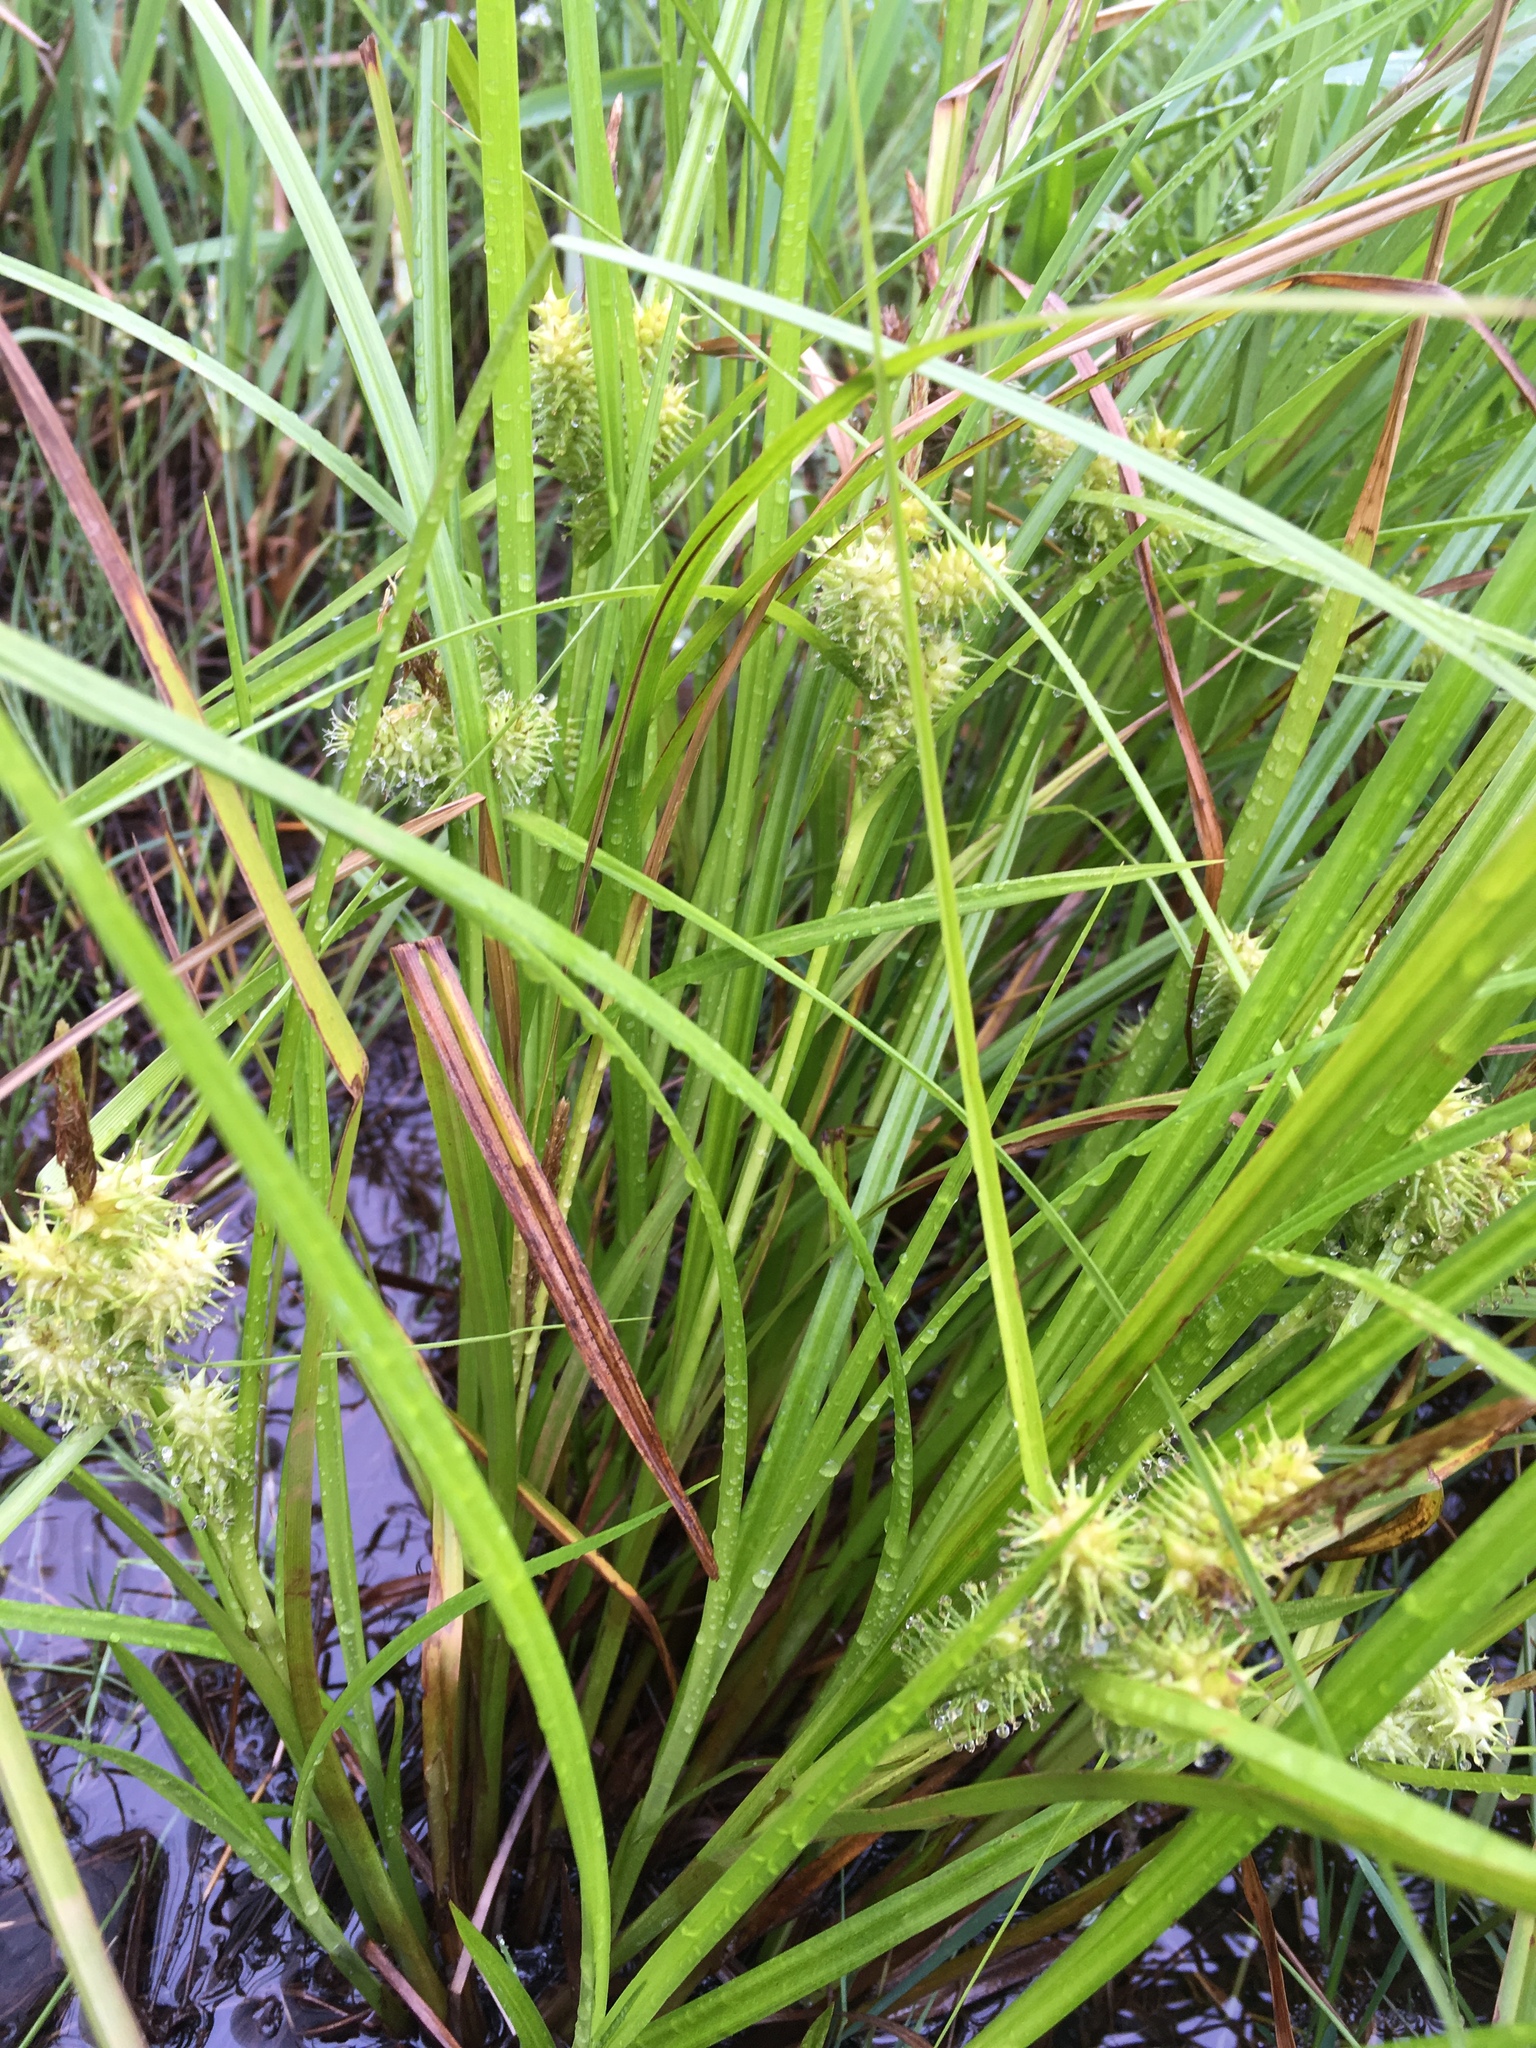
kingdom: Plantae
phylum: Tracheophyta
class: Liliopsida
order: Poales
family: Cyperaceae
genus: Carex
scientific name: Carex retrorsa
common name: Knot-sheath sedge
